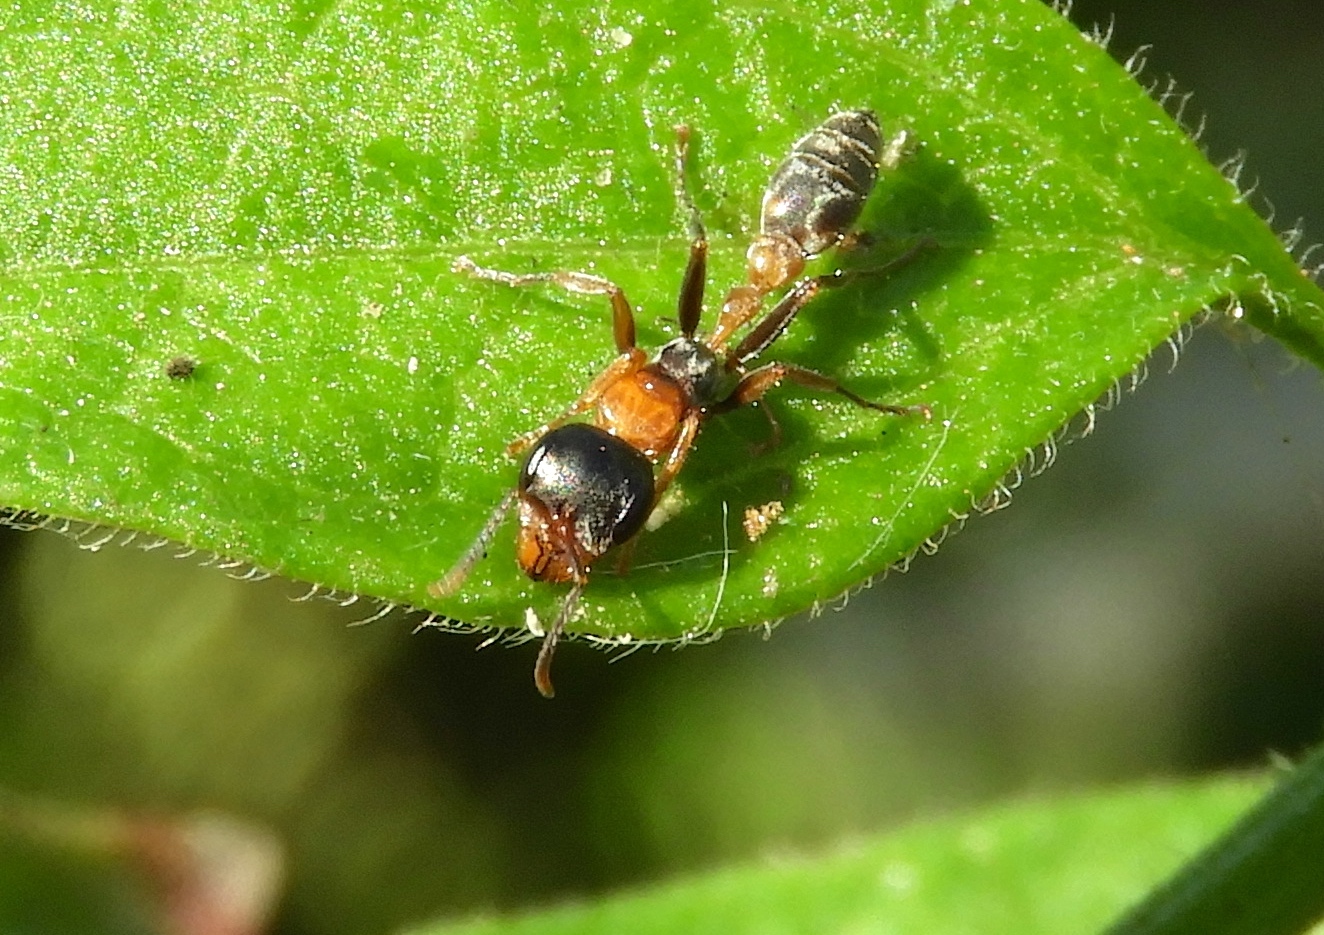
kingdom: Animalia
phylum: Arthropoda
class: Insecta
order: Hymenoptera
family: Formicidae
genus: Pseudomyrmex
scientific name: Pseudomyrmex gracilis
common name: Graceful twig ant
